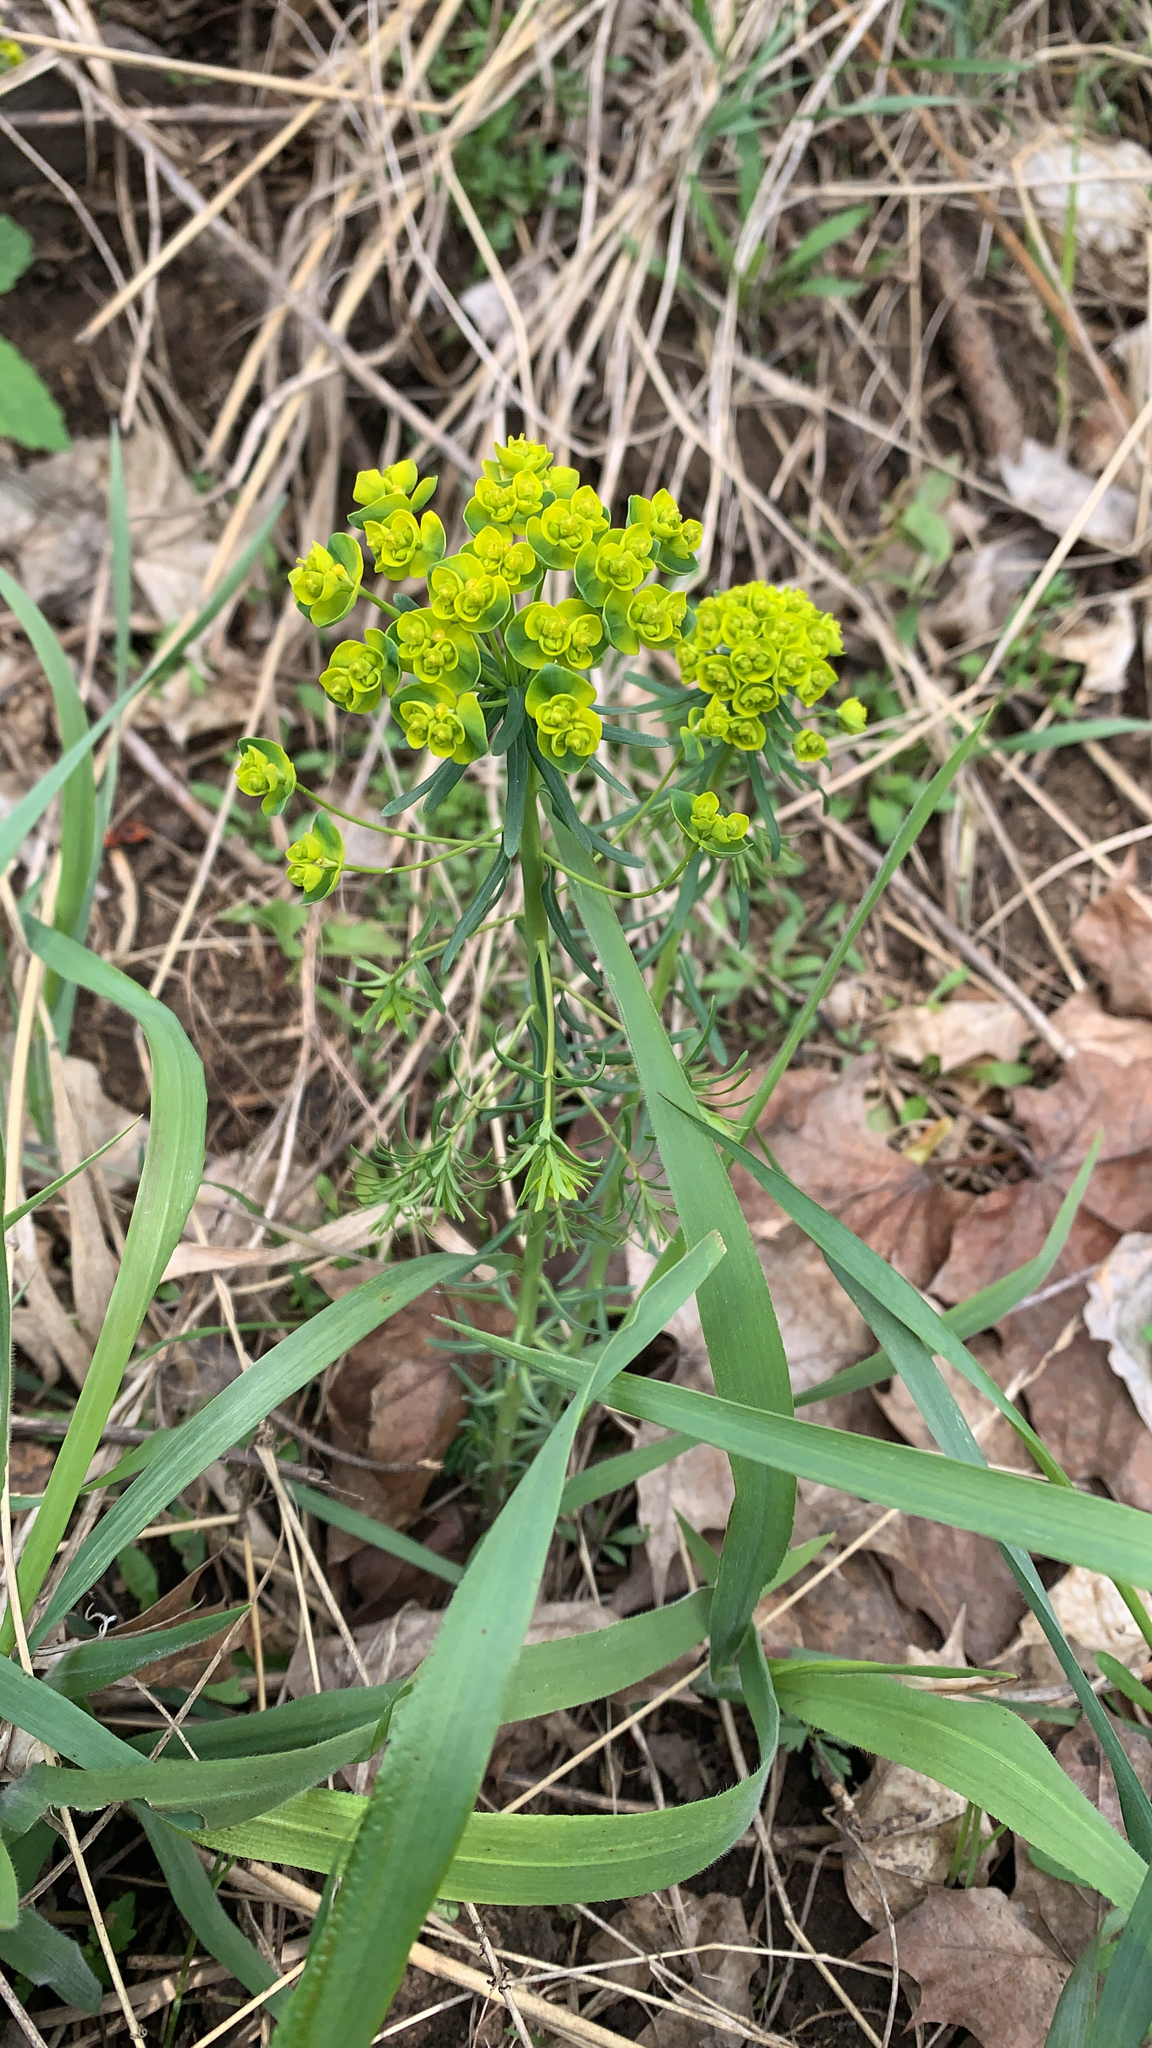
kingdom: Plantae
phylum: Tracheophyta
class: Magnoliopsida
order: Malpighiales
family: Euphorbiaceae
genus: Euphorbia
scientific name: Euphorbia cyparissias
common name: Cypress spurge
